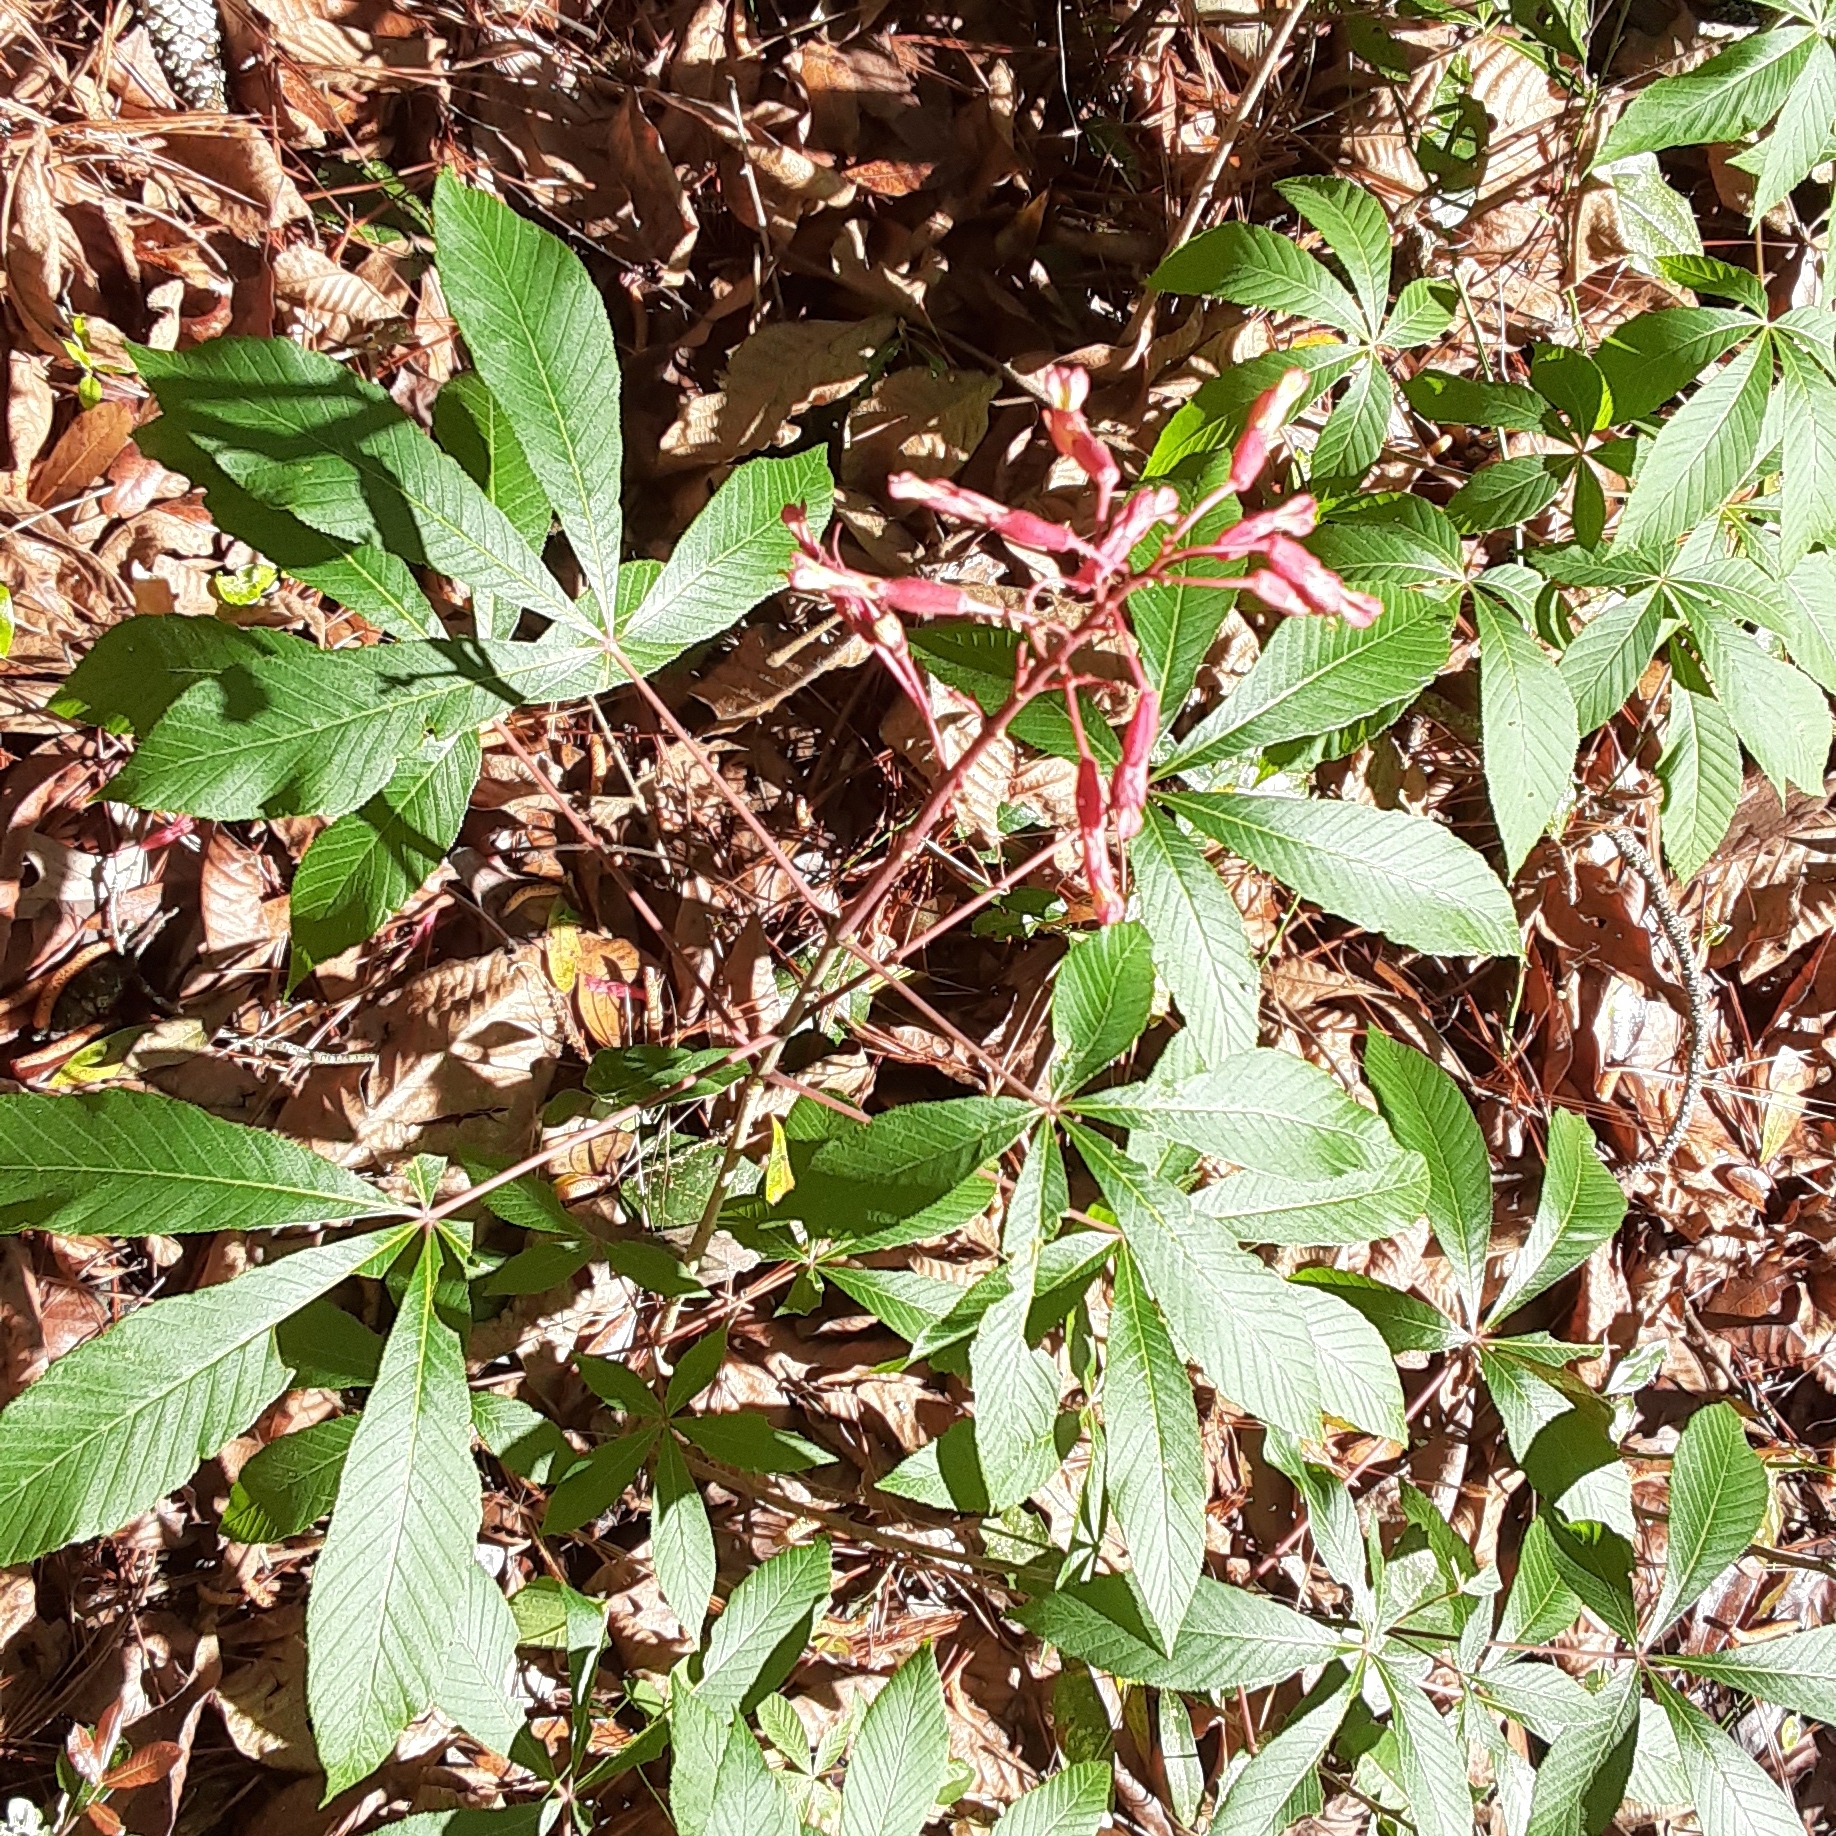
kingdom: Plantae
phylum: Tracheophyta
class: Magnoliopsida
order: Sapindales
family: Sapindaceae
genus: Aesculus
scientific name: Aesculus pavia
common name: Red buckeye
